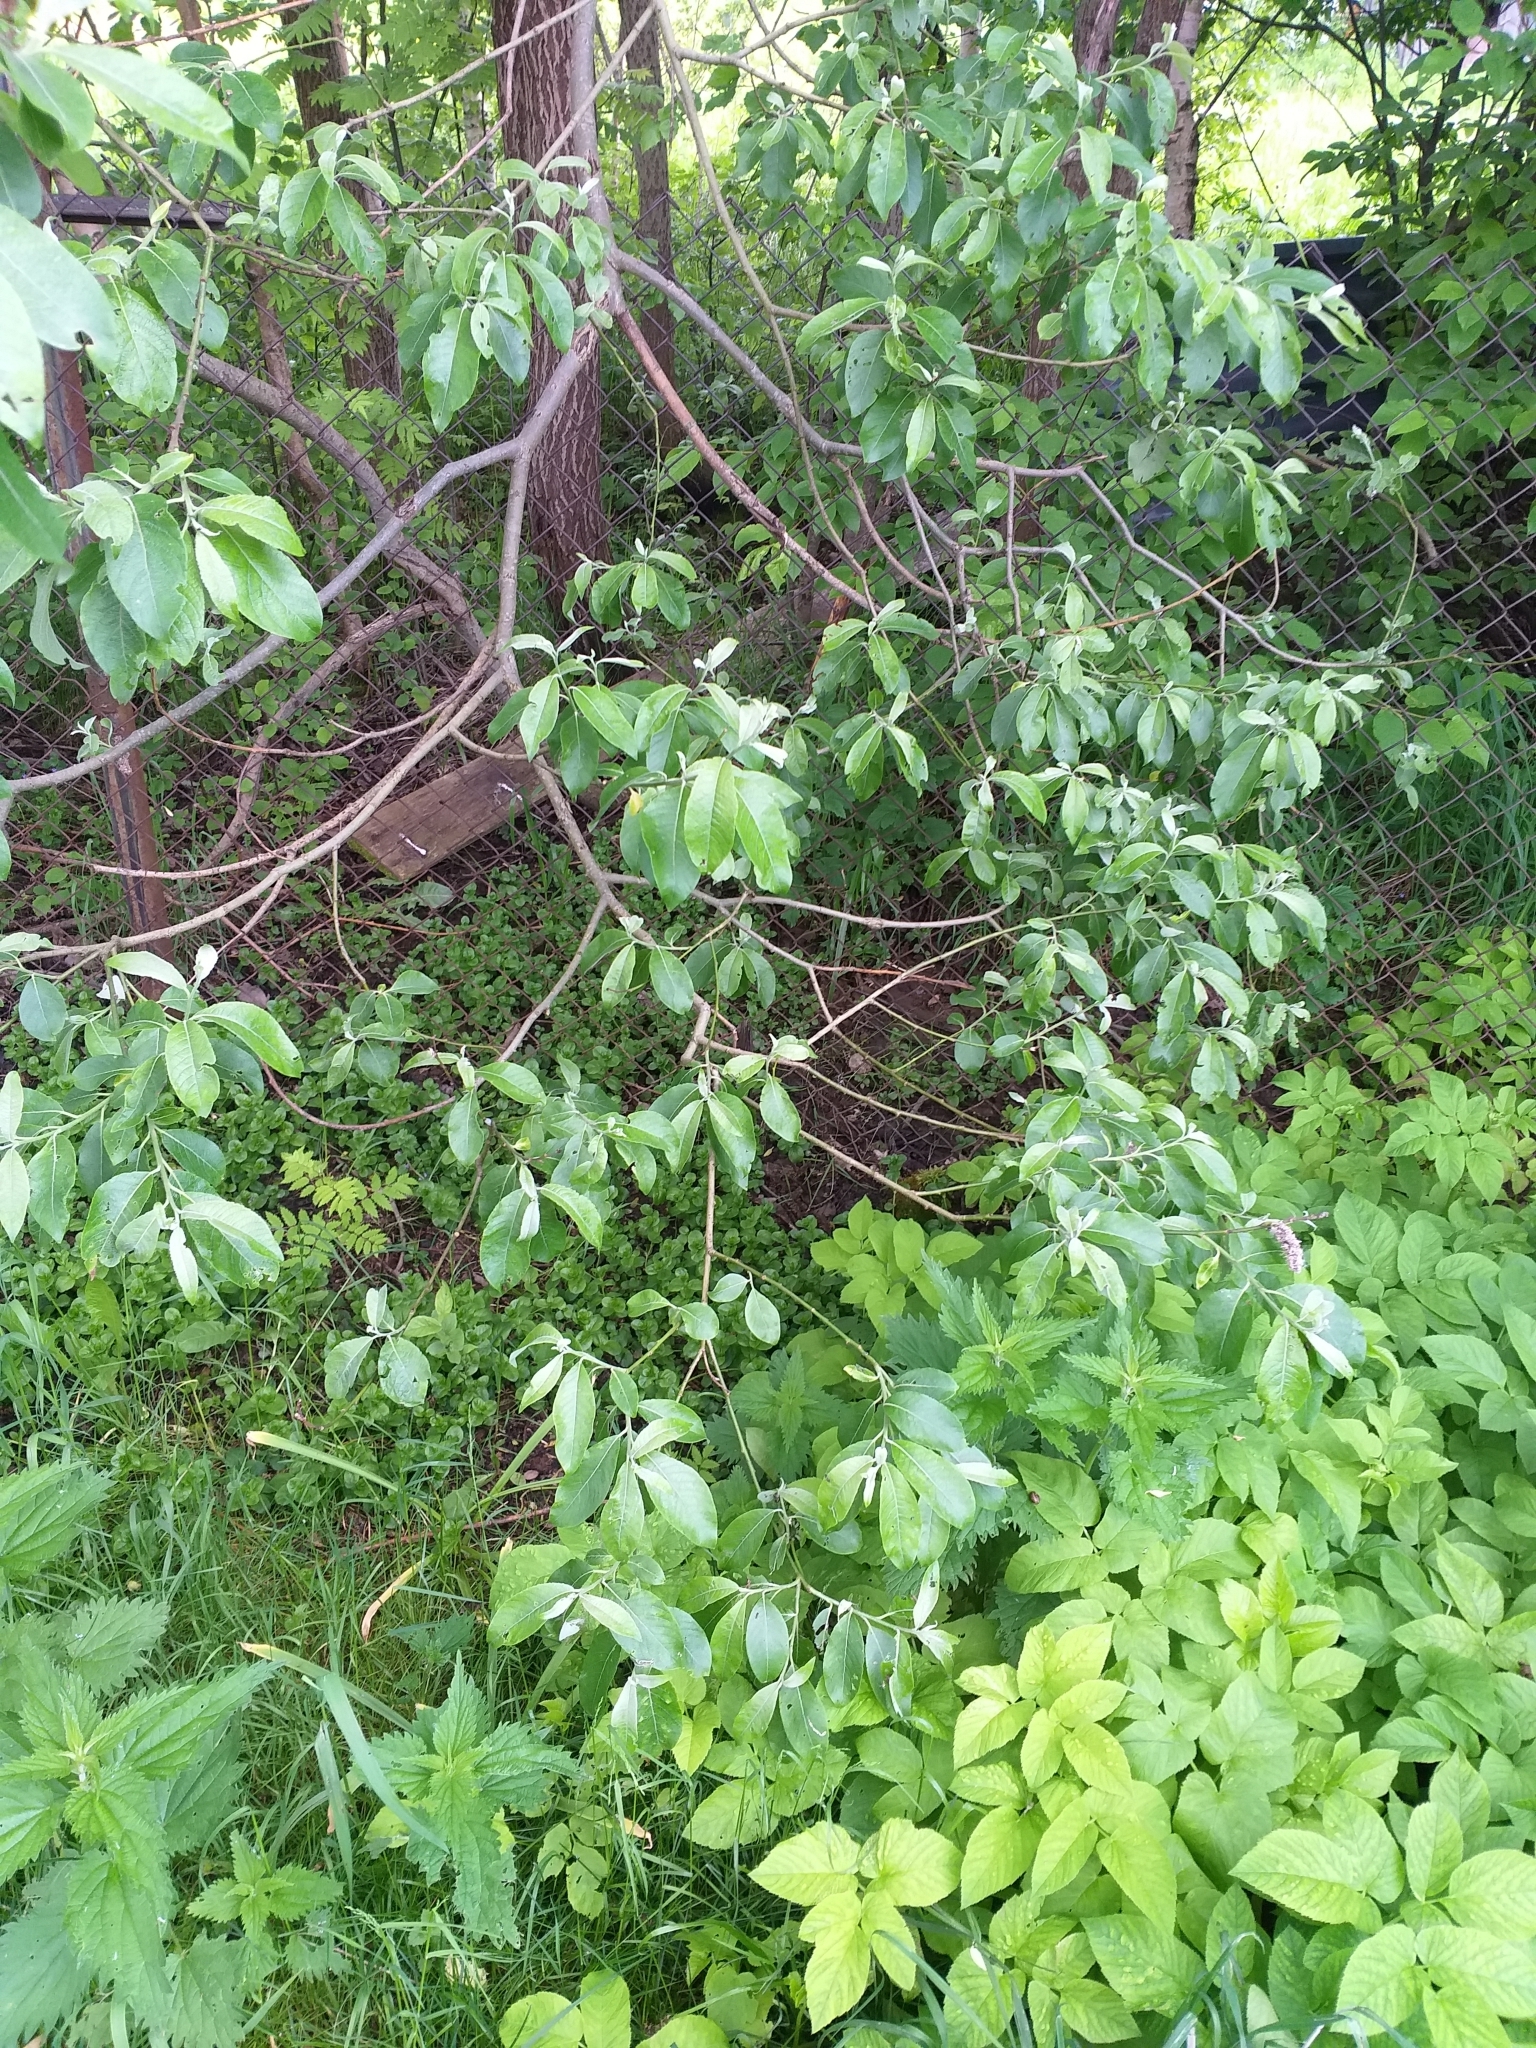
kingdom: Plantae
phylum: Tracheophyta
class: Magnoliopsida
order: Malpighiales
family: Salicaceae
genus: Salix
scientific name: Salix caprea
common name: Goat willow
